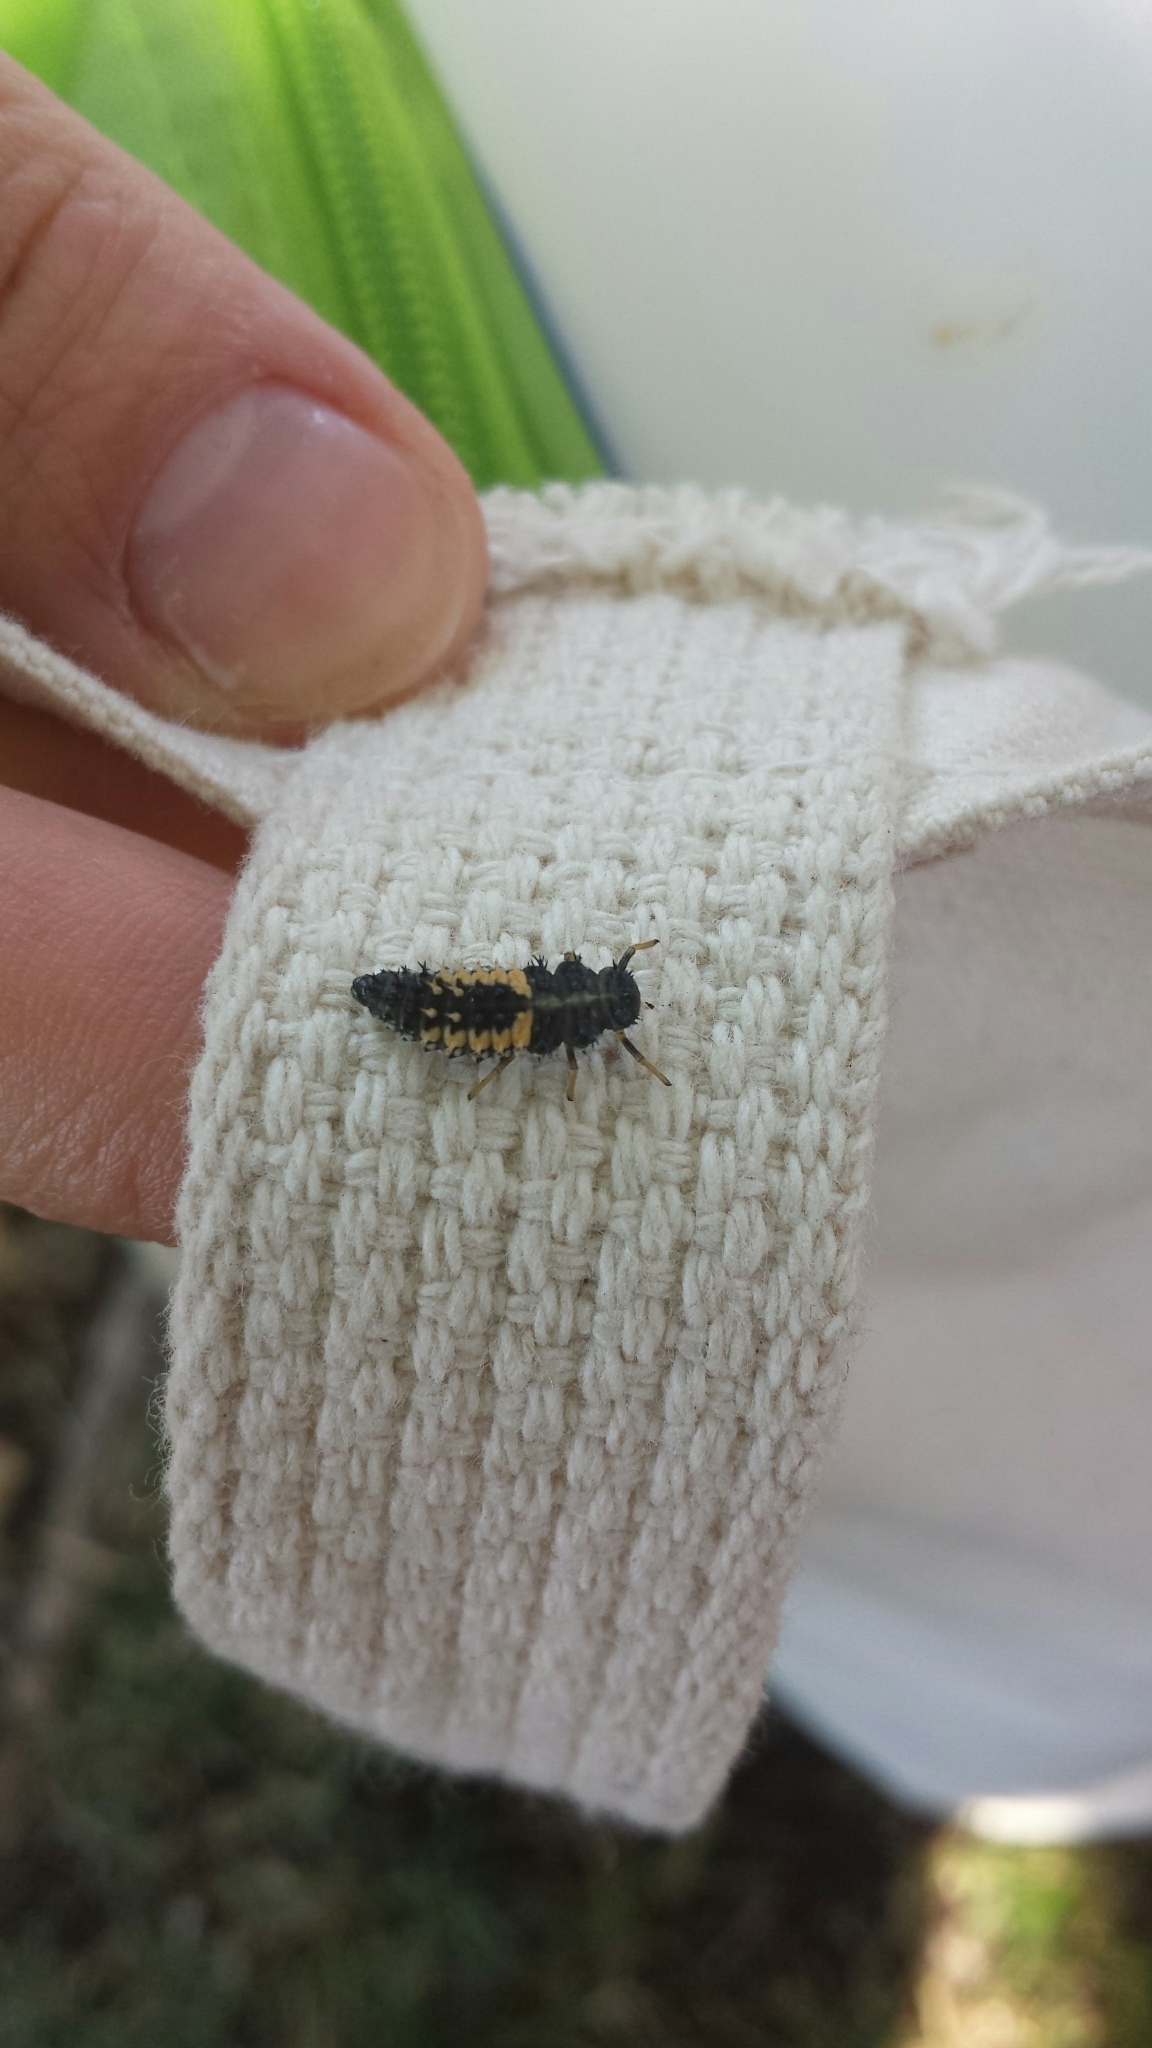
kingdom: Animalia
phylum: Arthropoda
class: Insecta
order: Coleoptera
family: Coccinellidae
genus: Harmonia
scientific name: Harmonia axyridis
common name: Harlequin ladybird
